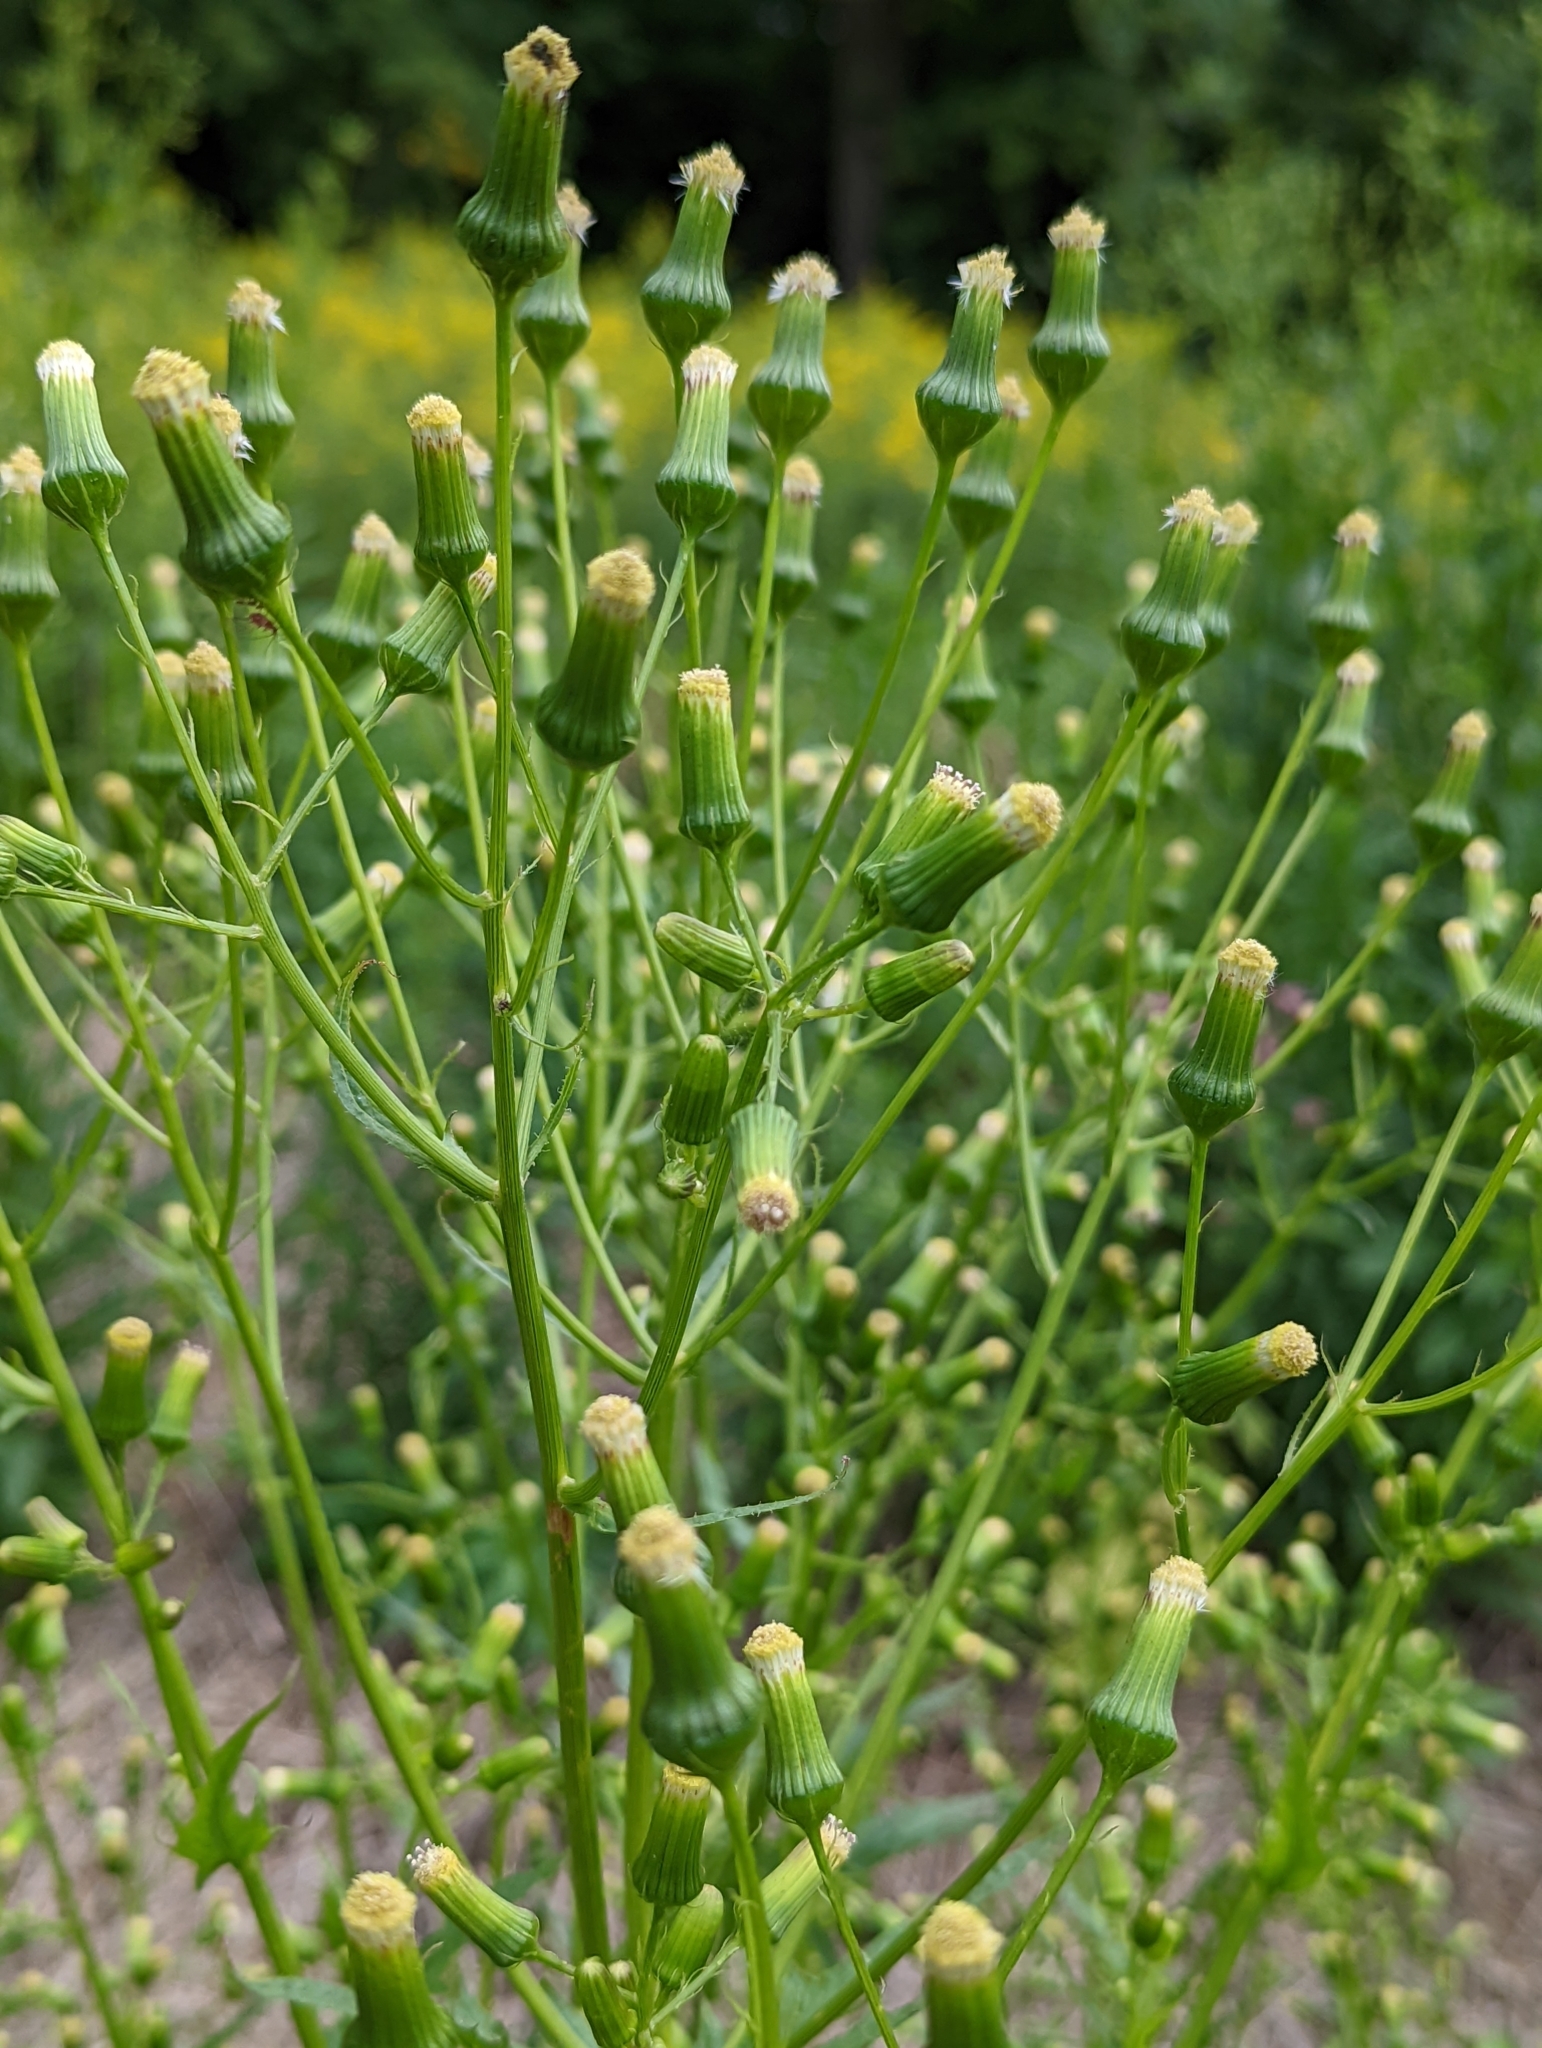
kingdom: Plantae
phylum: Tracheophyta
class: Magnoliopsida
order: Asterales
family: Asteraceae
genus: Erechtites
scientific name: Erechtites hieraciifolius
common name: American burnweed
